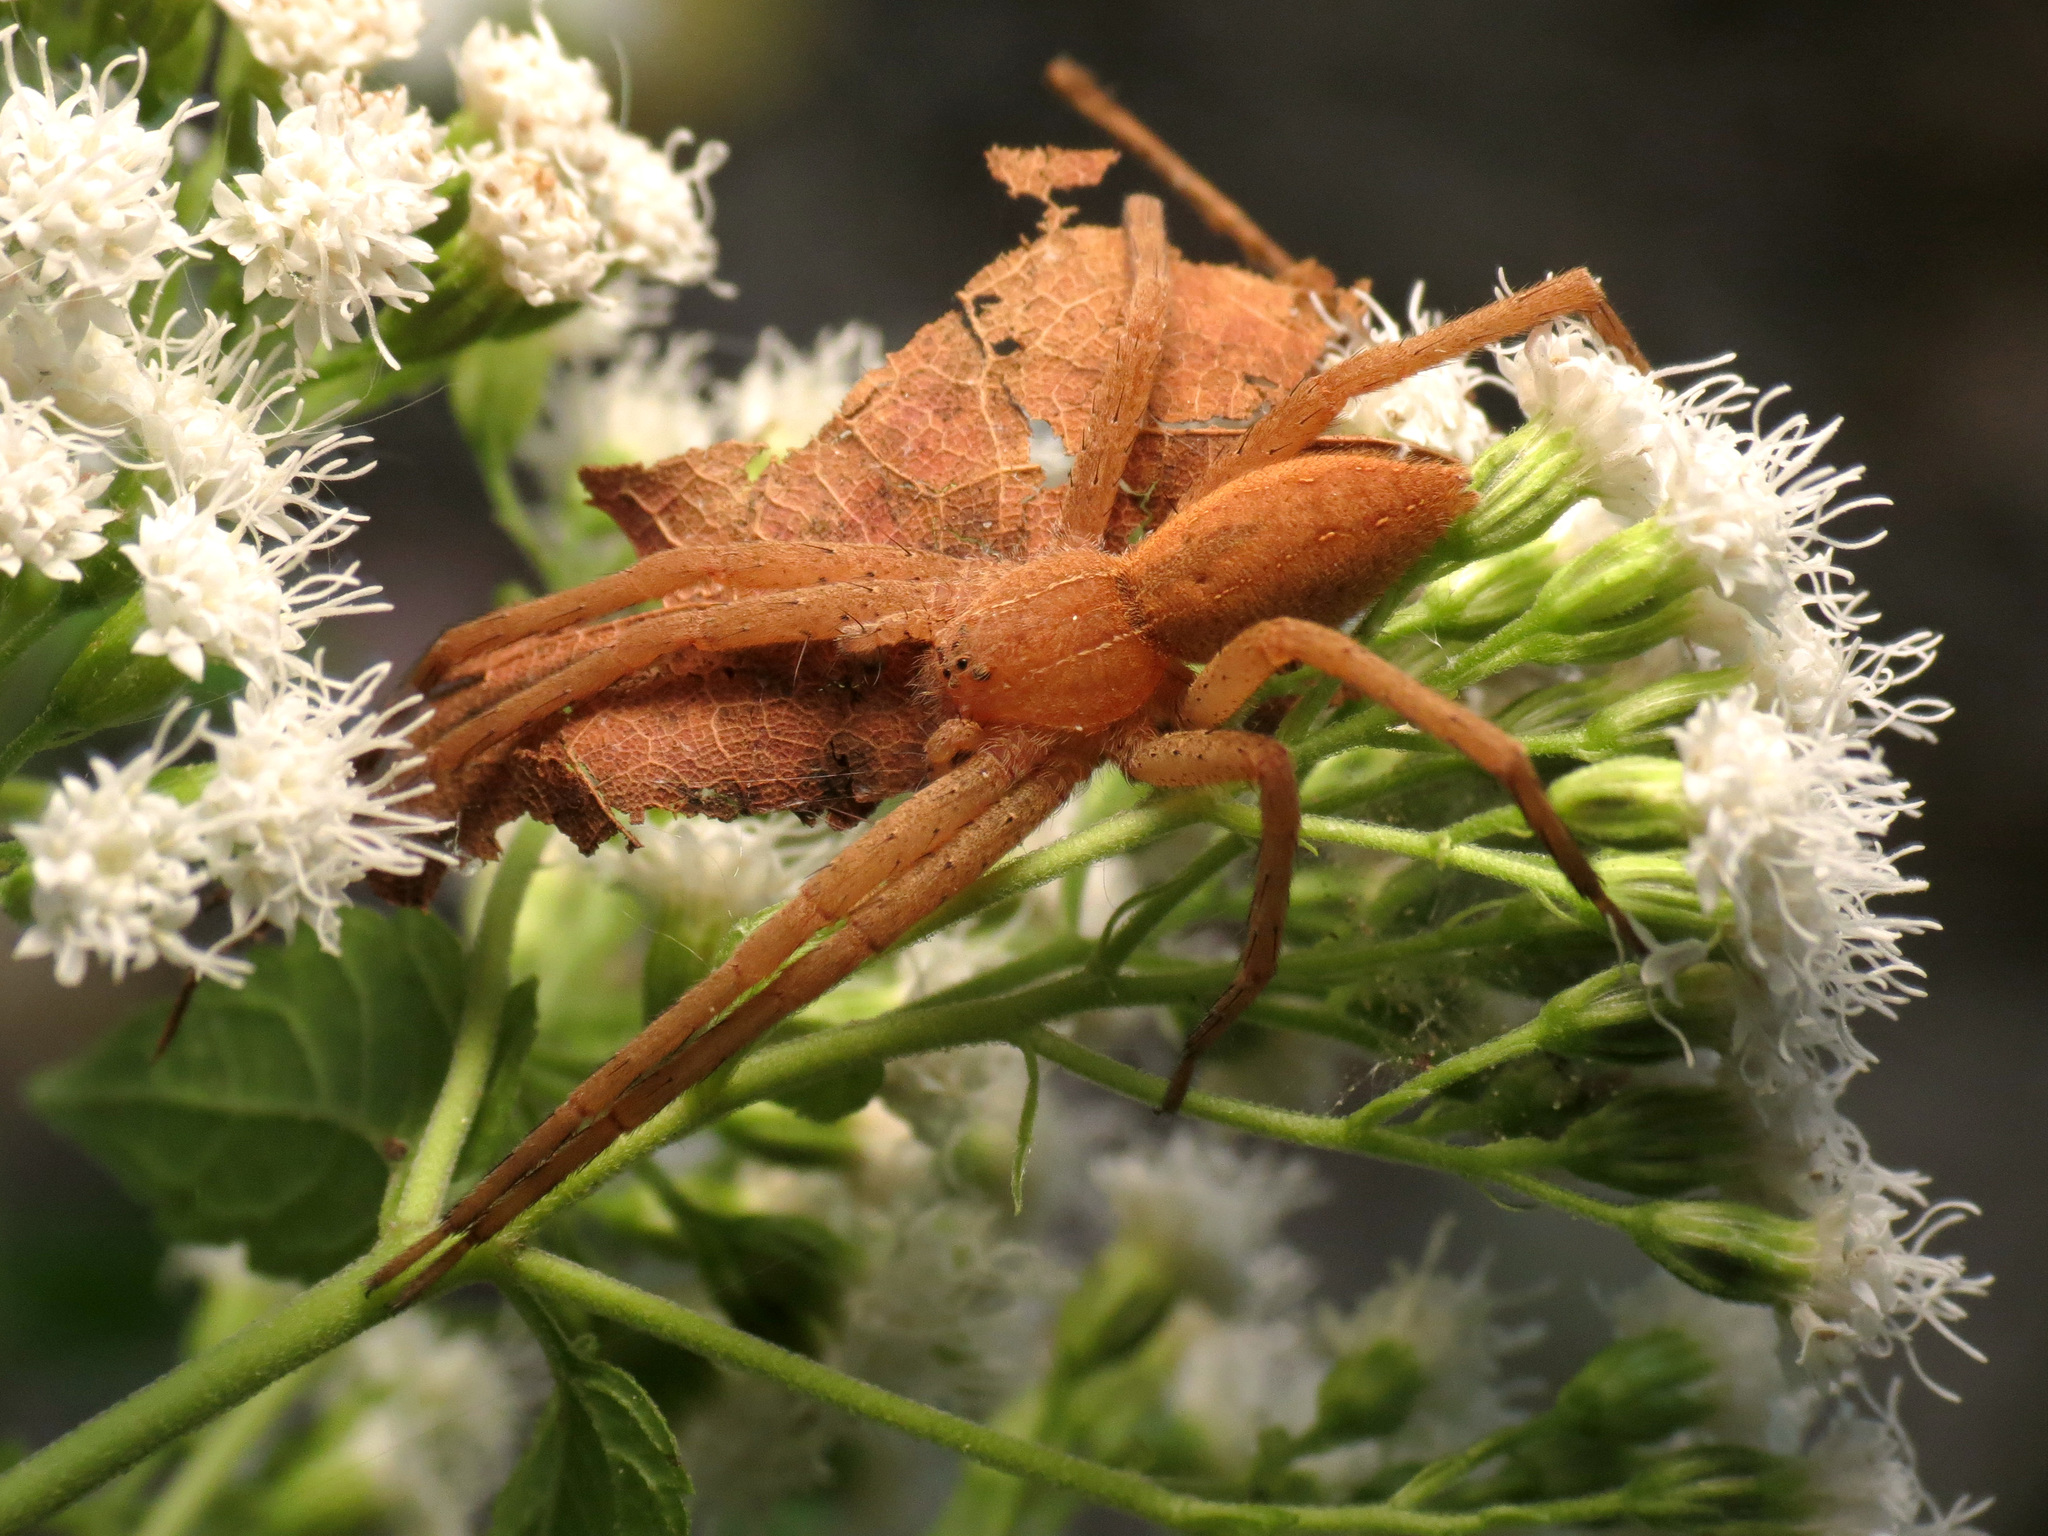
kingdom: Animalia
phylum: Arthropoda
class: Arachnida
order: Araneae
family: Pisauridae
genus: Pisaurina
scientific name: Pisaurina mira
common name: American nursery web spider
